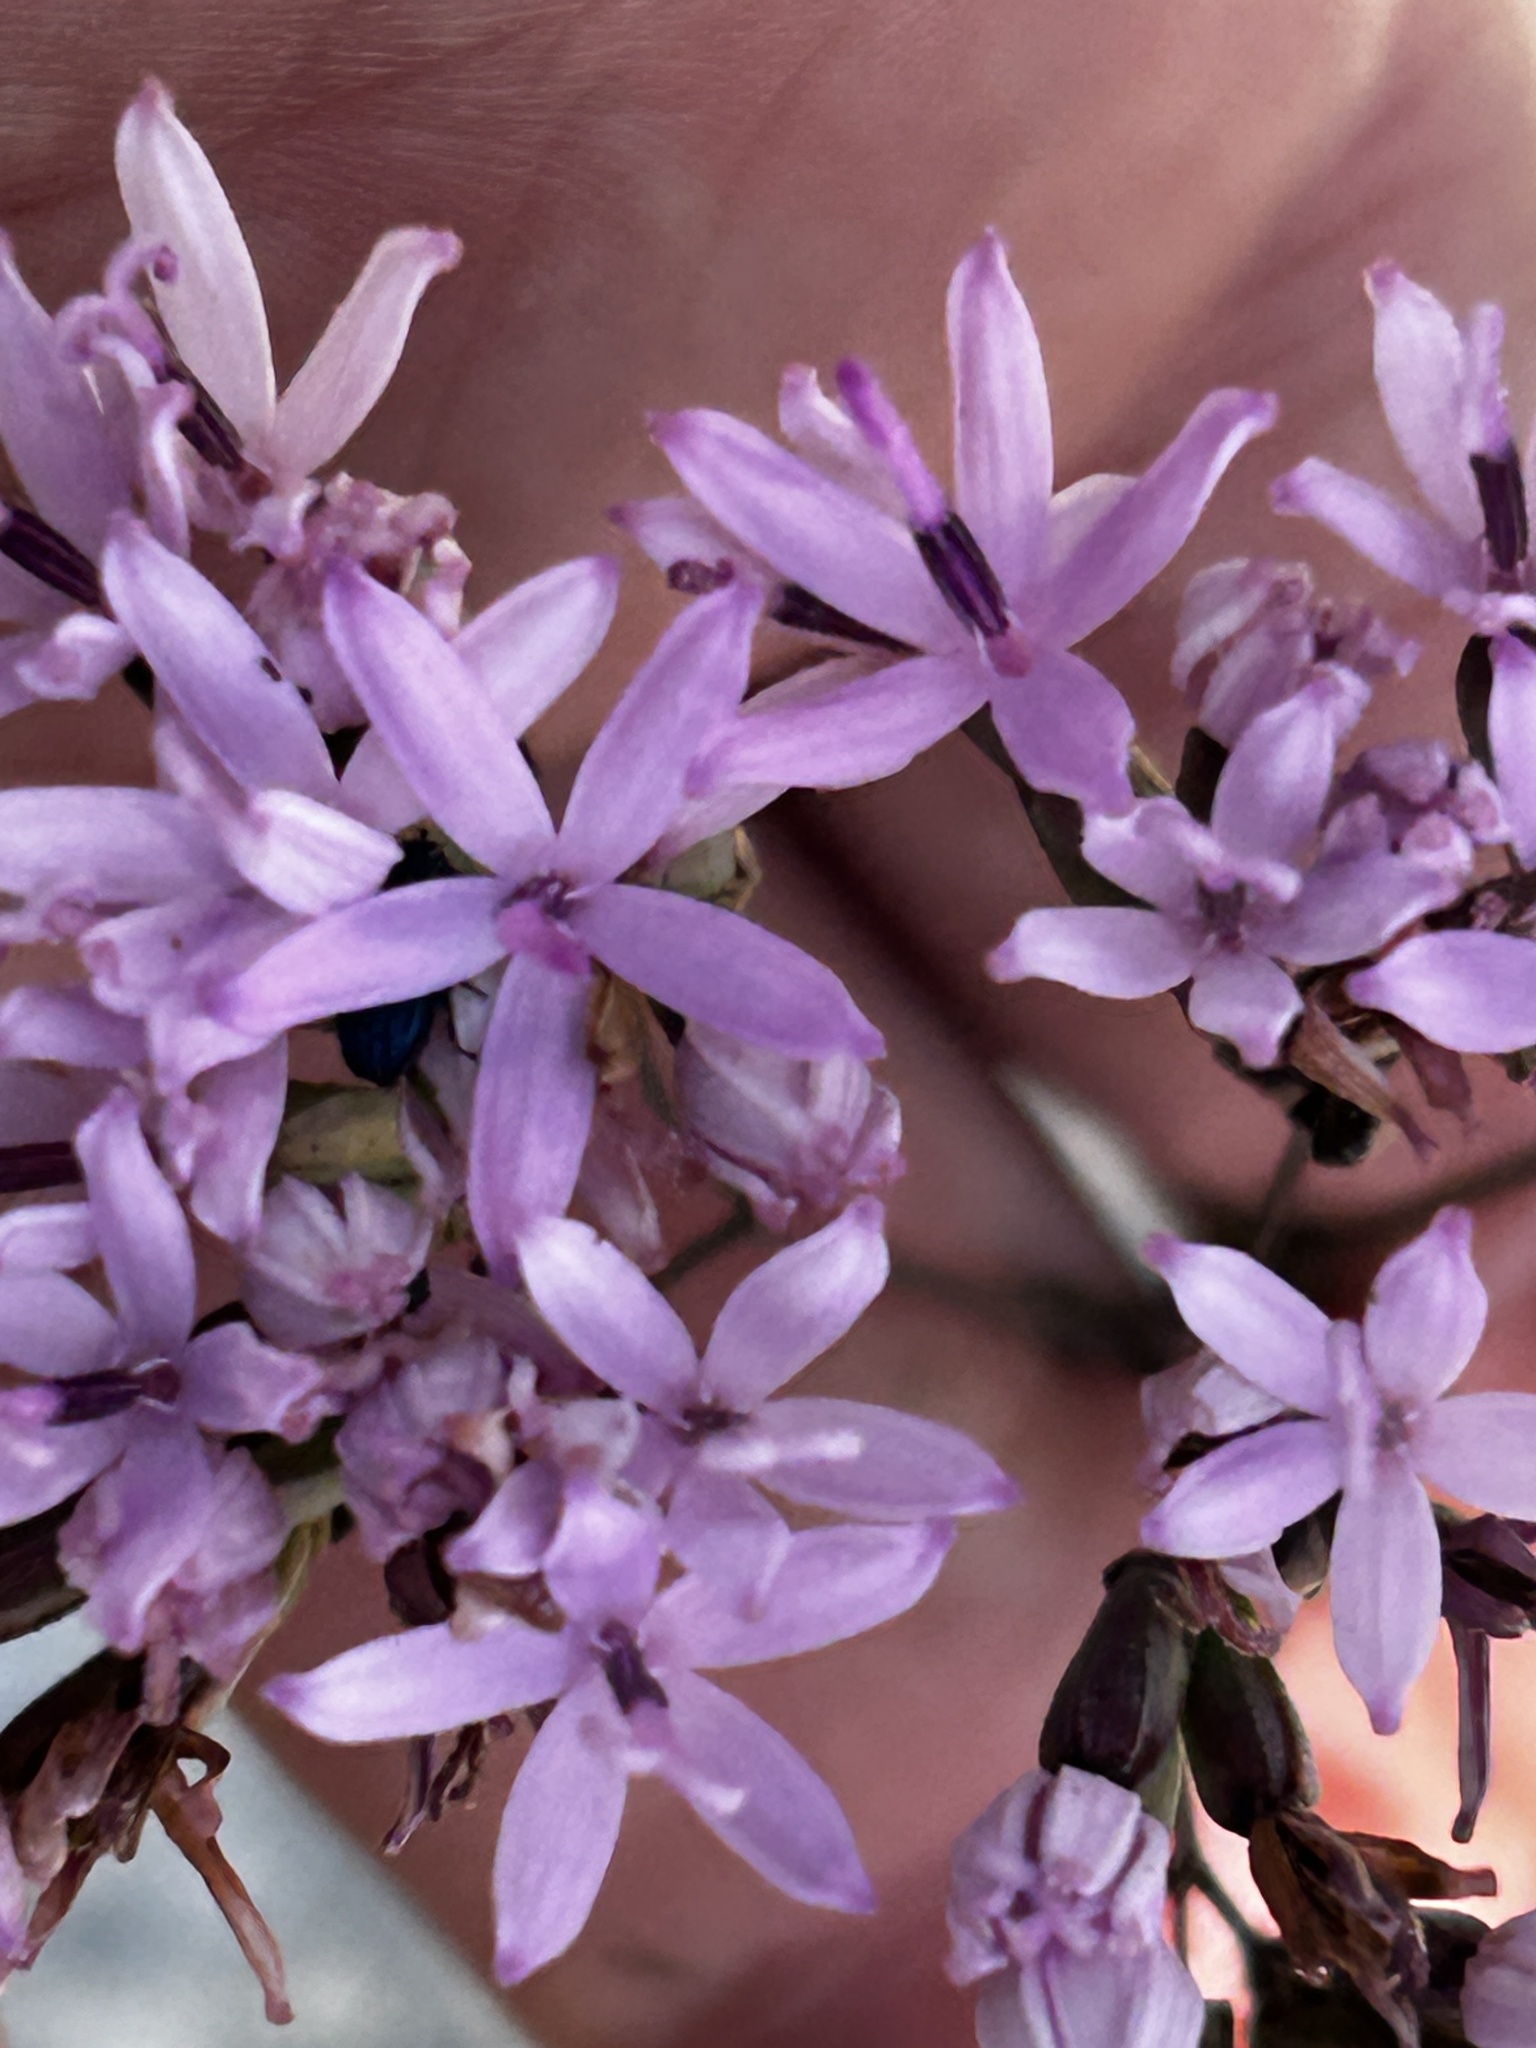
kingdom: Plantae
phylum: Tracheophyta
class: Magnoliopsida
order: Asterales
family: Asteraceae
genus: Corymbium
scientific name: Corymbium glabrum
